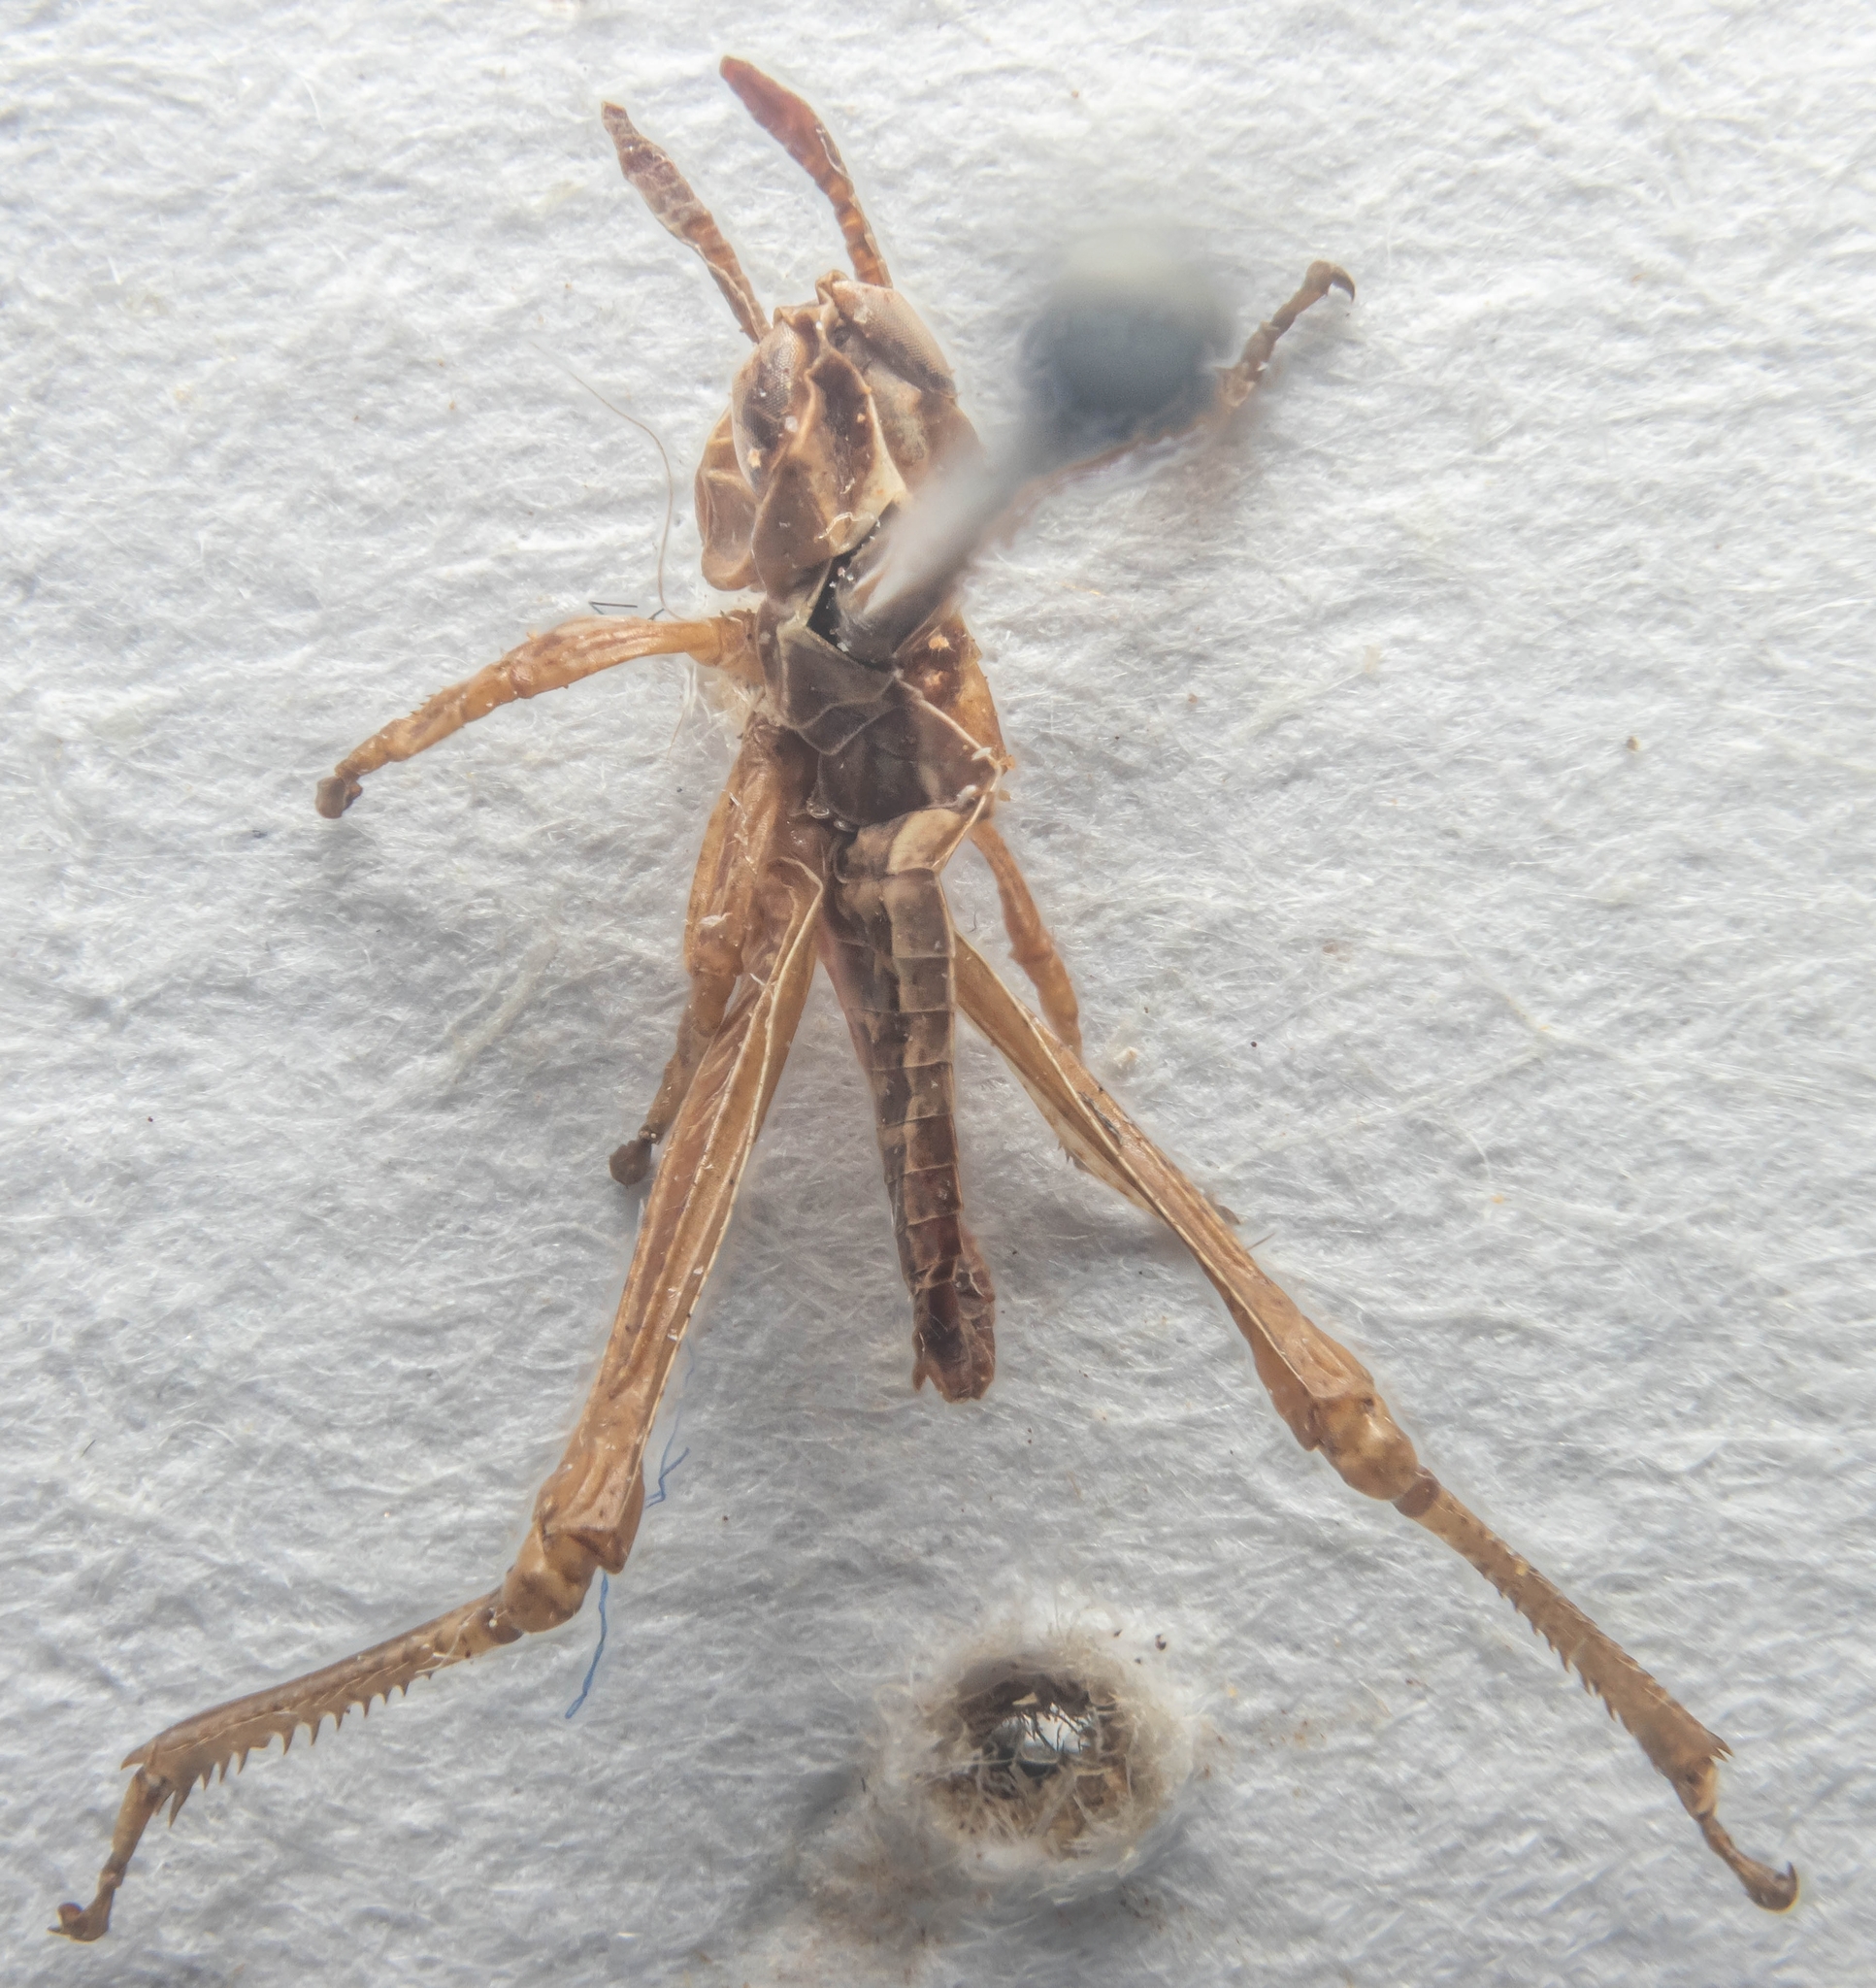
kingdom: Animalia
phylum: Arthropoda
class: Insecta
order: Orthoptera
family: Acrididae
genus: Myrmeleotettix
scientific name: Myrmeleotettix maculatus
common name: Mottled grasshopper
